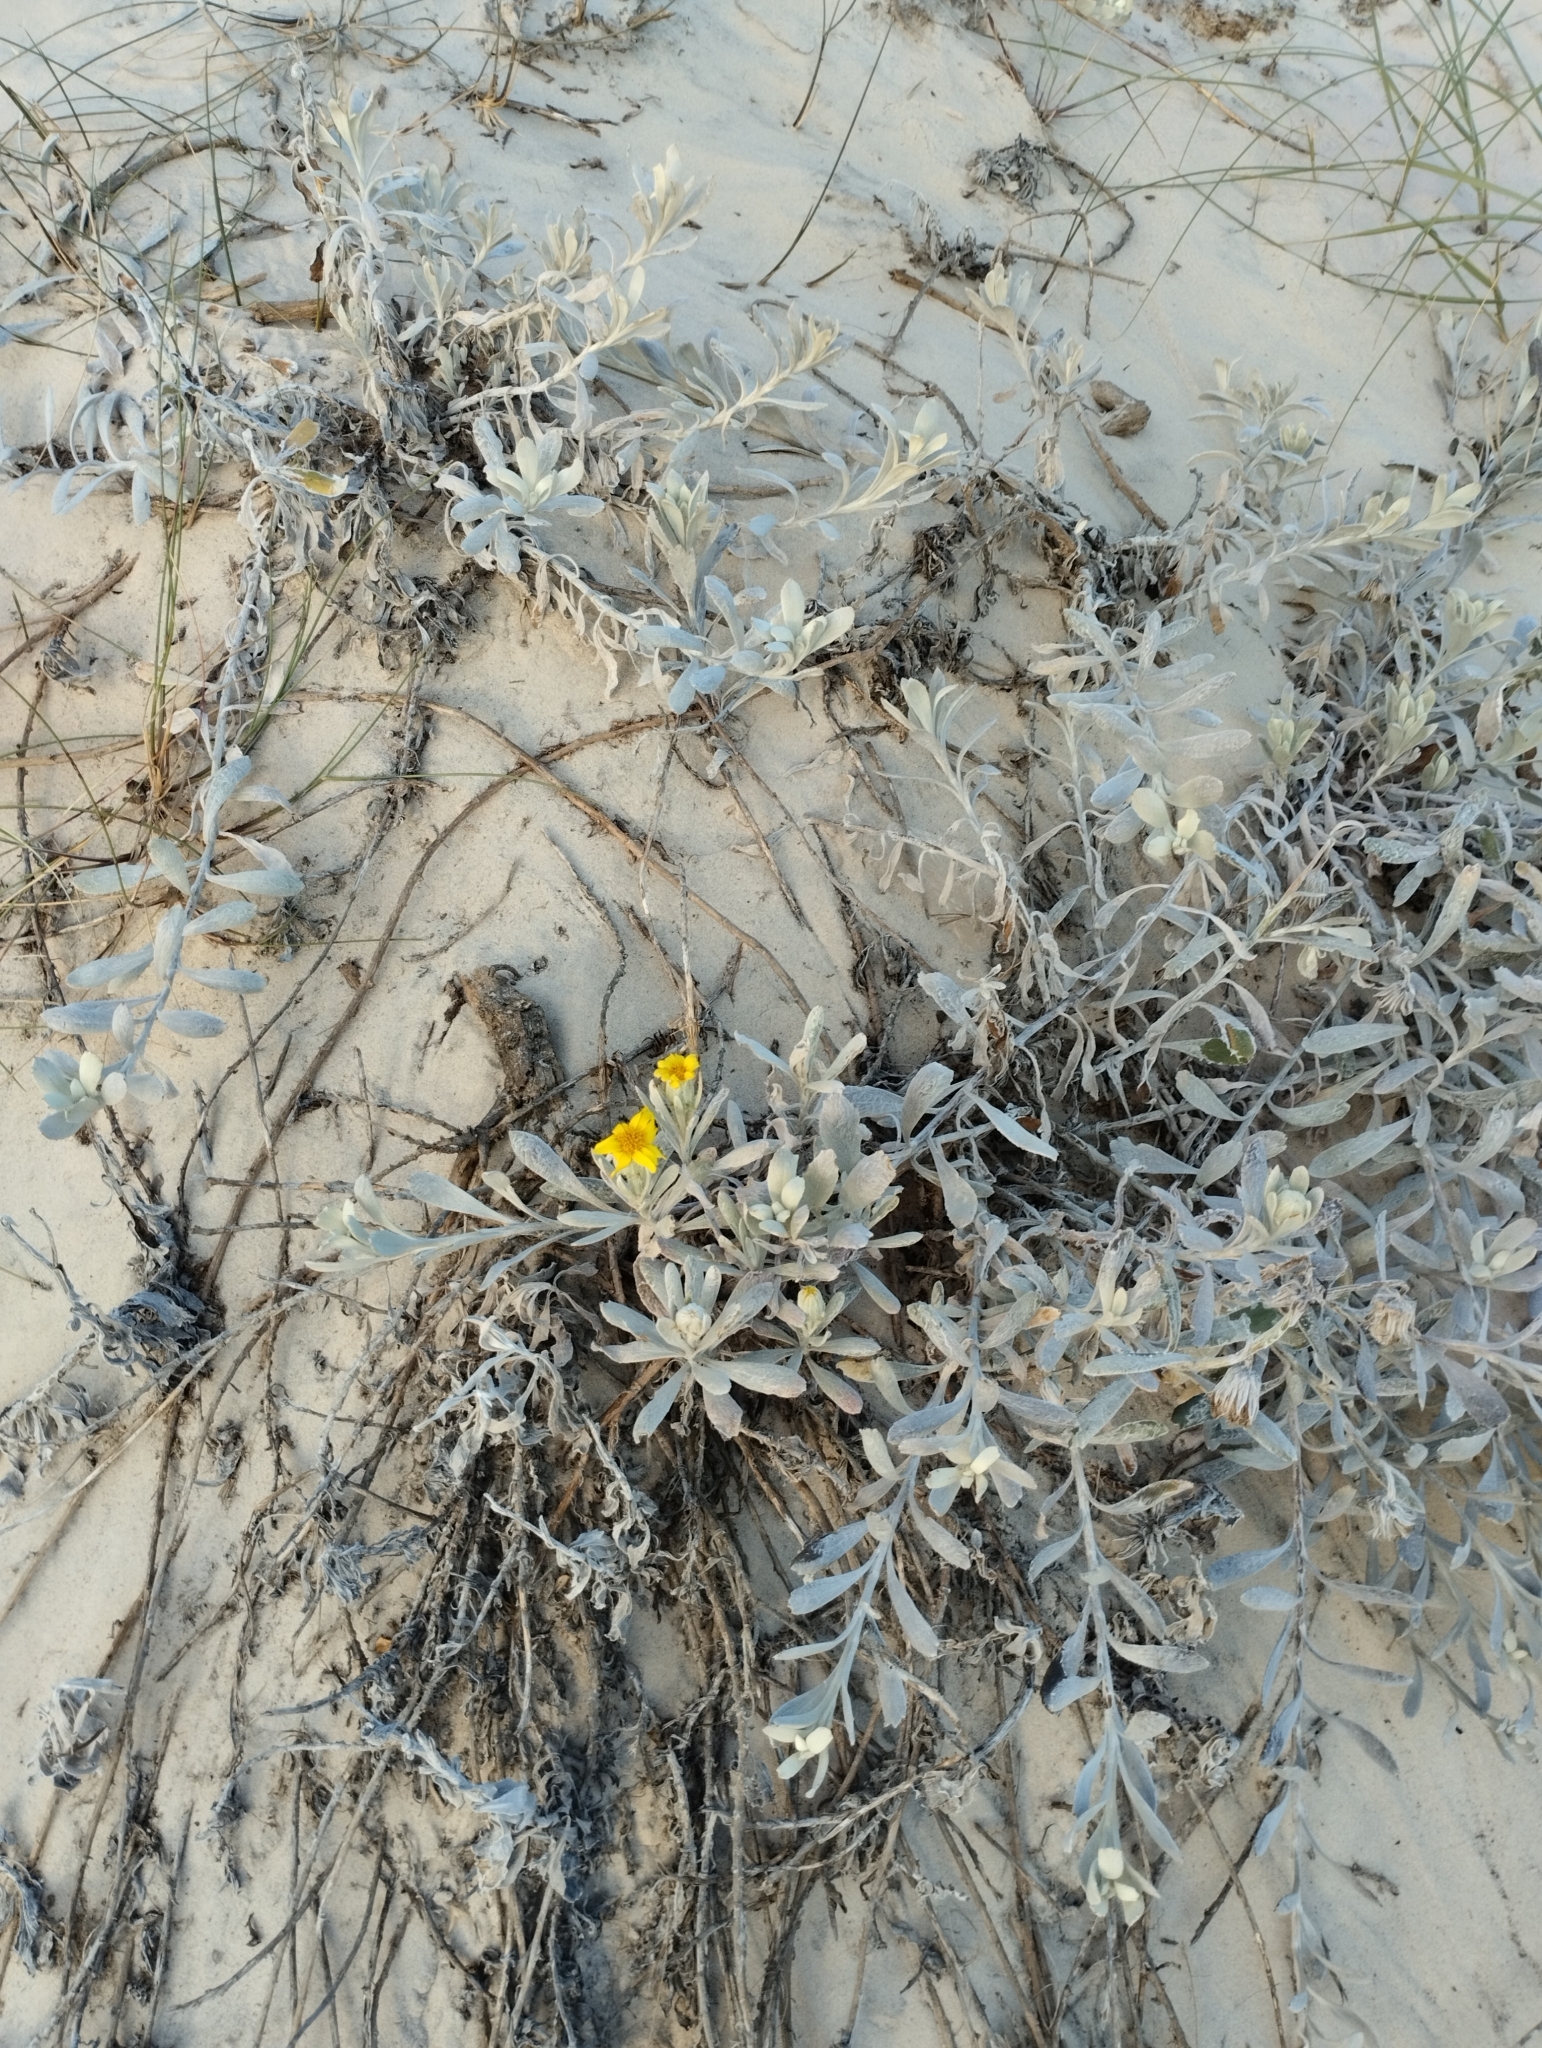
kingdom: Plantae
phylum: Tracheophyta
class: Magnoliopsida
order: Asterales
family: Asteraceae
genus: Senecio
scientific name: Senecio crassiflorus
